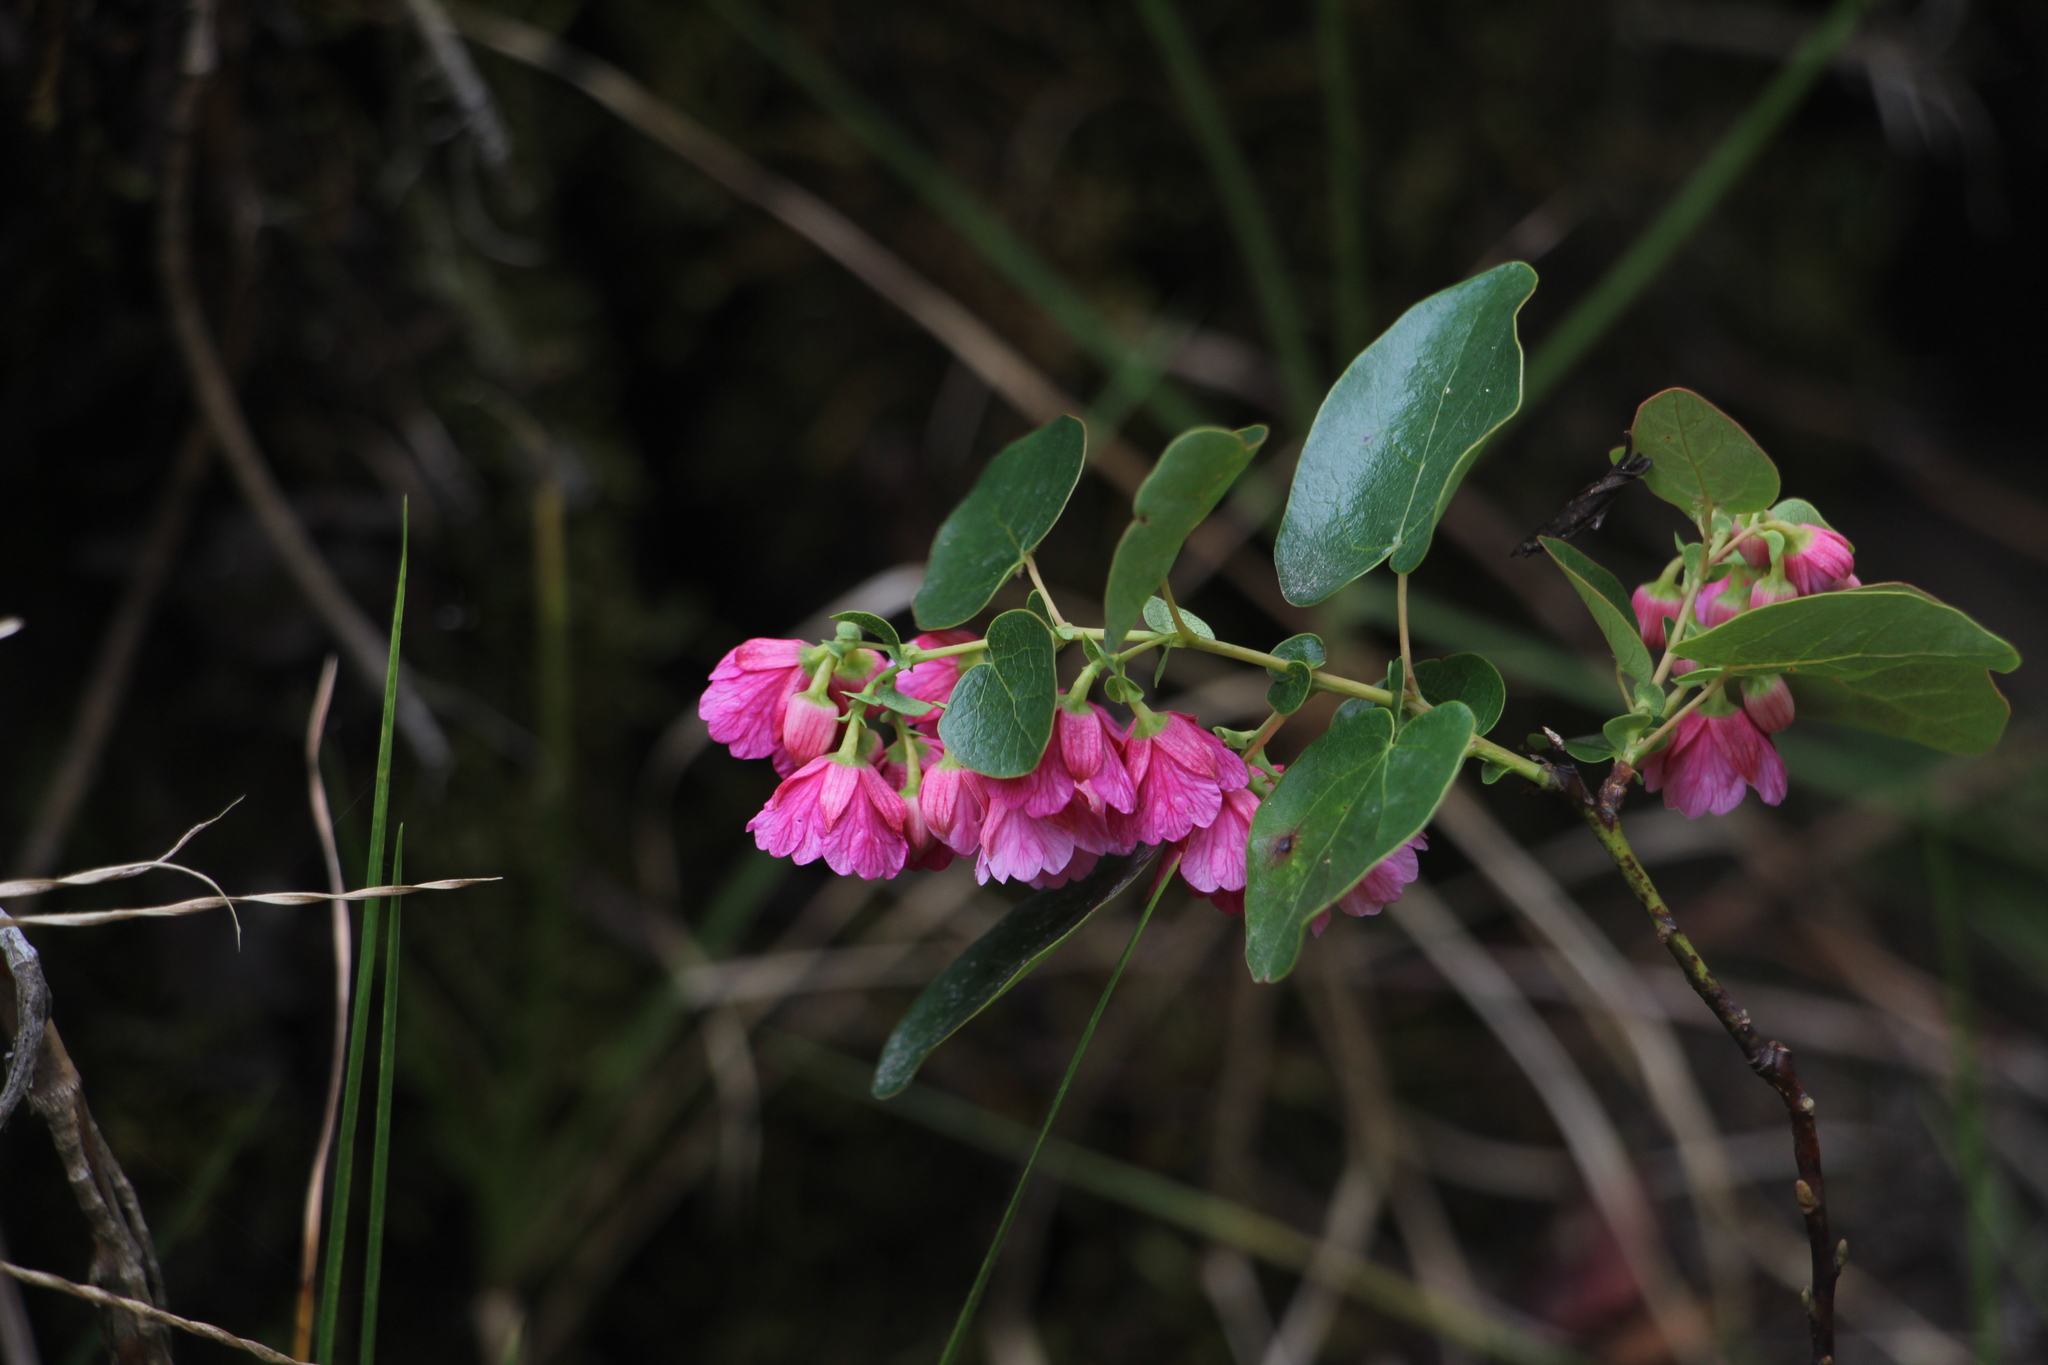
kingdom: Plantae
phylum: Tracheophyta
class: Magnoliopsida
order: Oxalidales
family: Elaeocarpaceae
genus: Vallea
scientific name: Vallea stipularis
